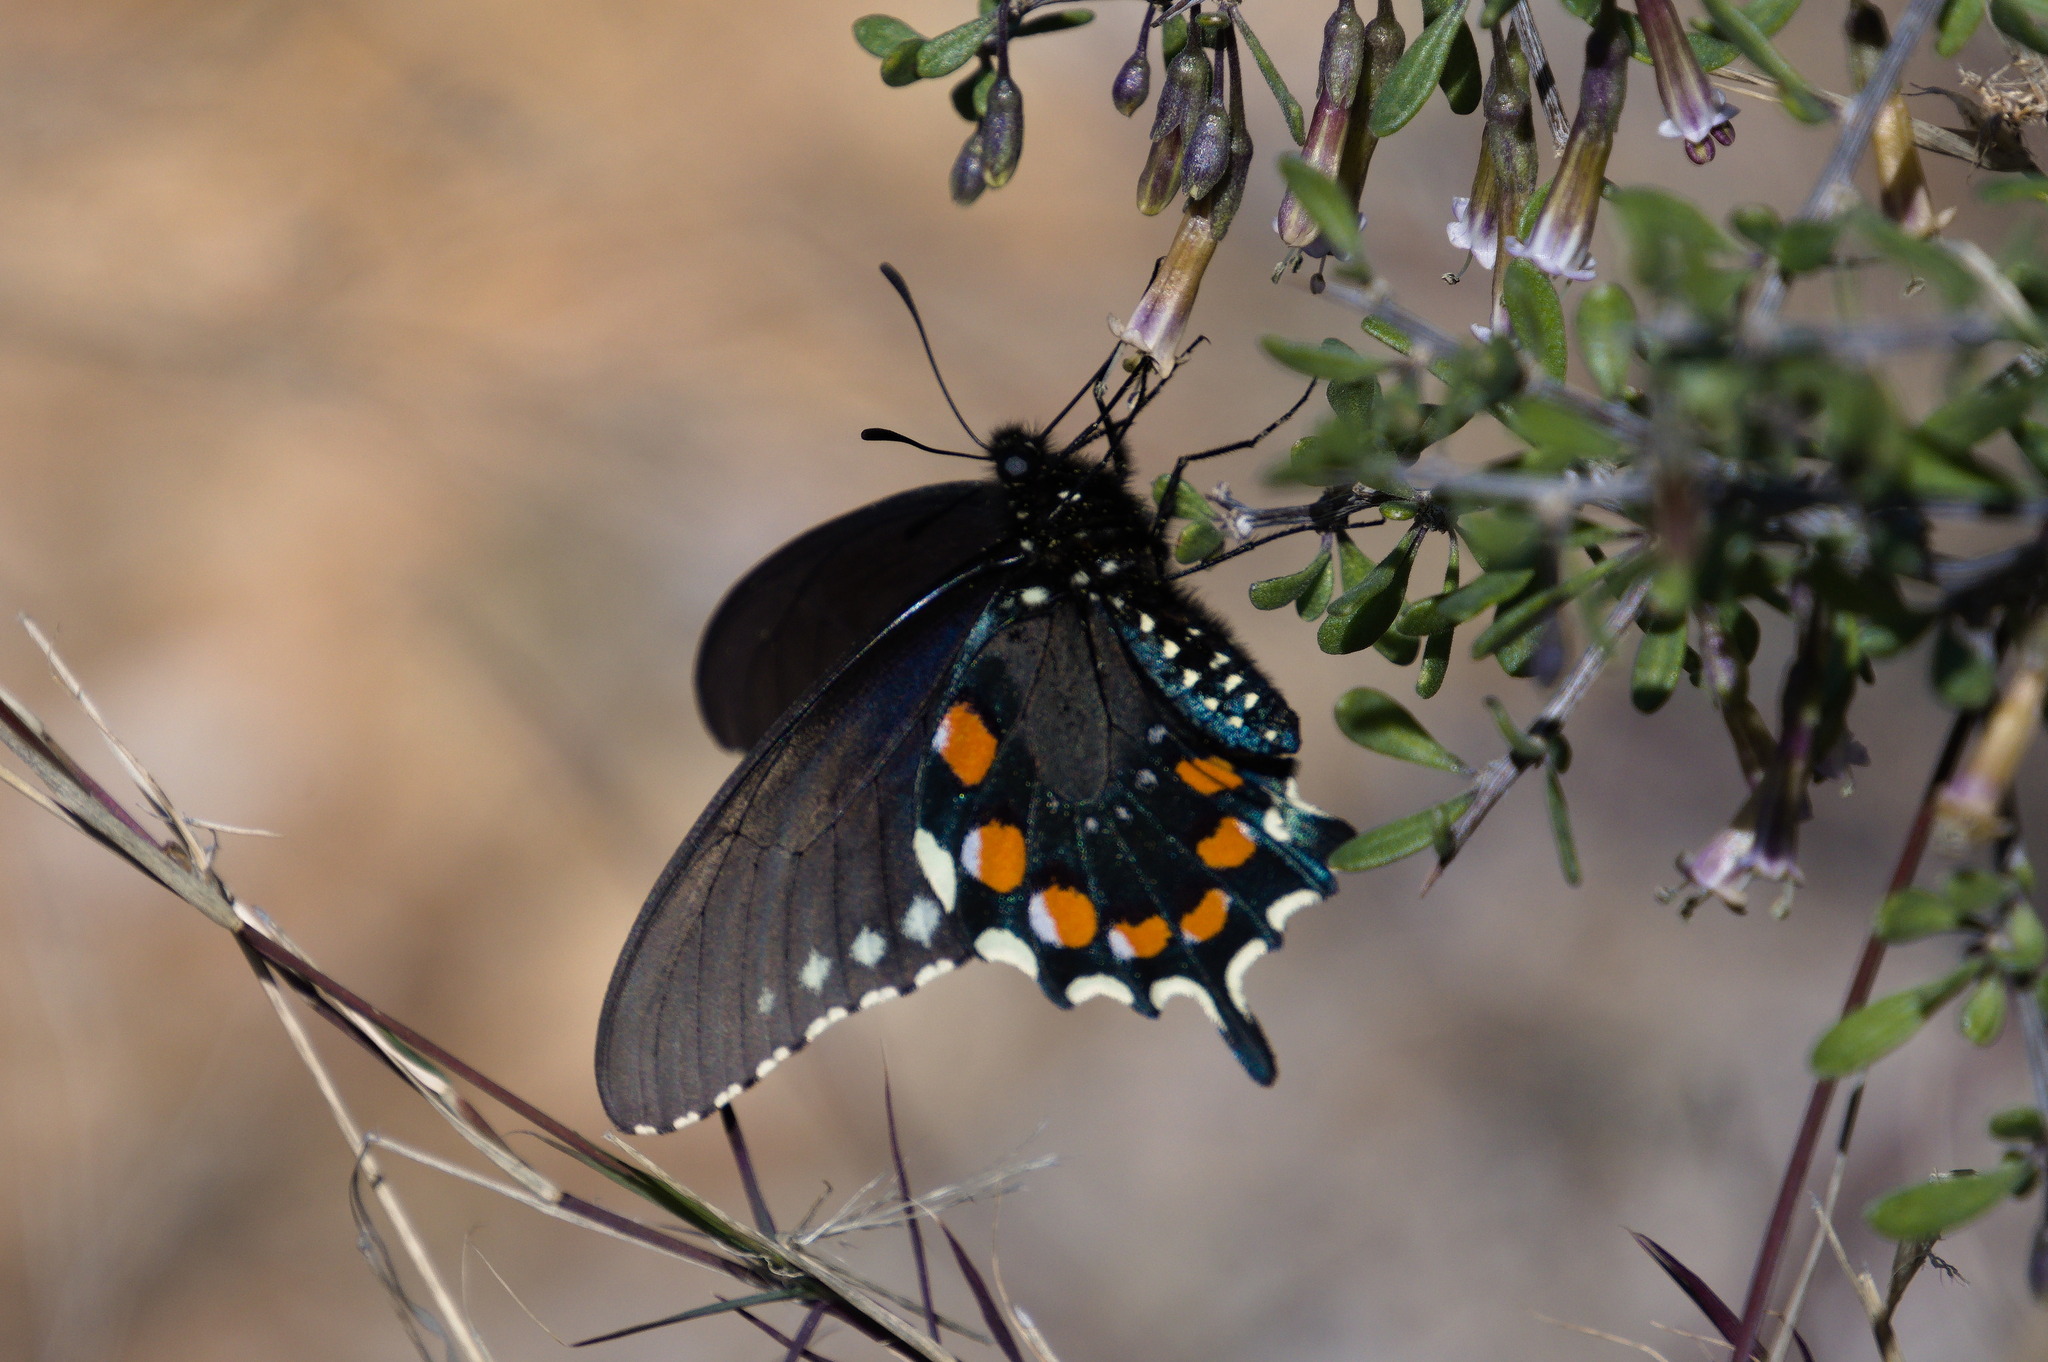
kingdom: Animalia
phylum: Arthropoda
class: Insecta
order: Lepidoptera
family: Papilionidae
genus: Battus
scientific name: Battus philenor
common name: Pipevine swallowtail
